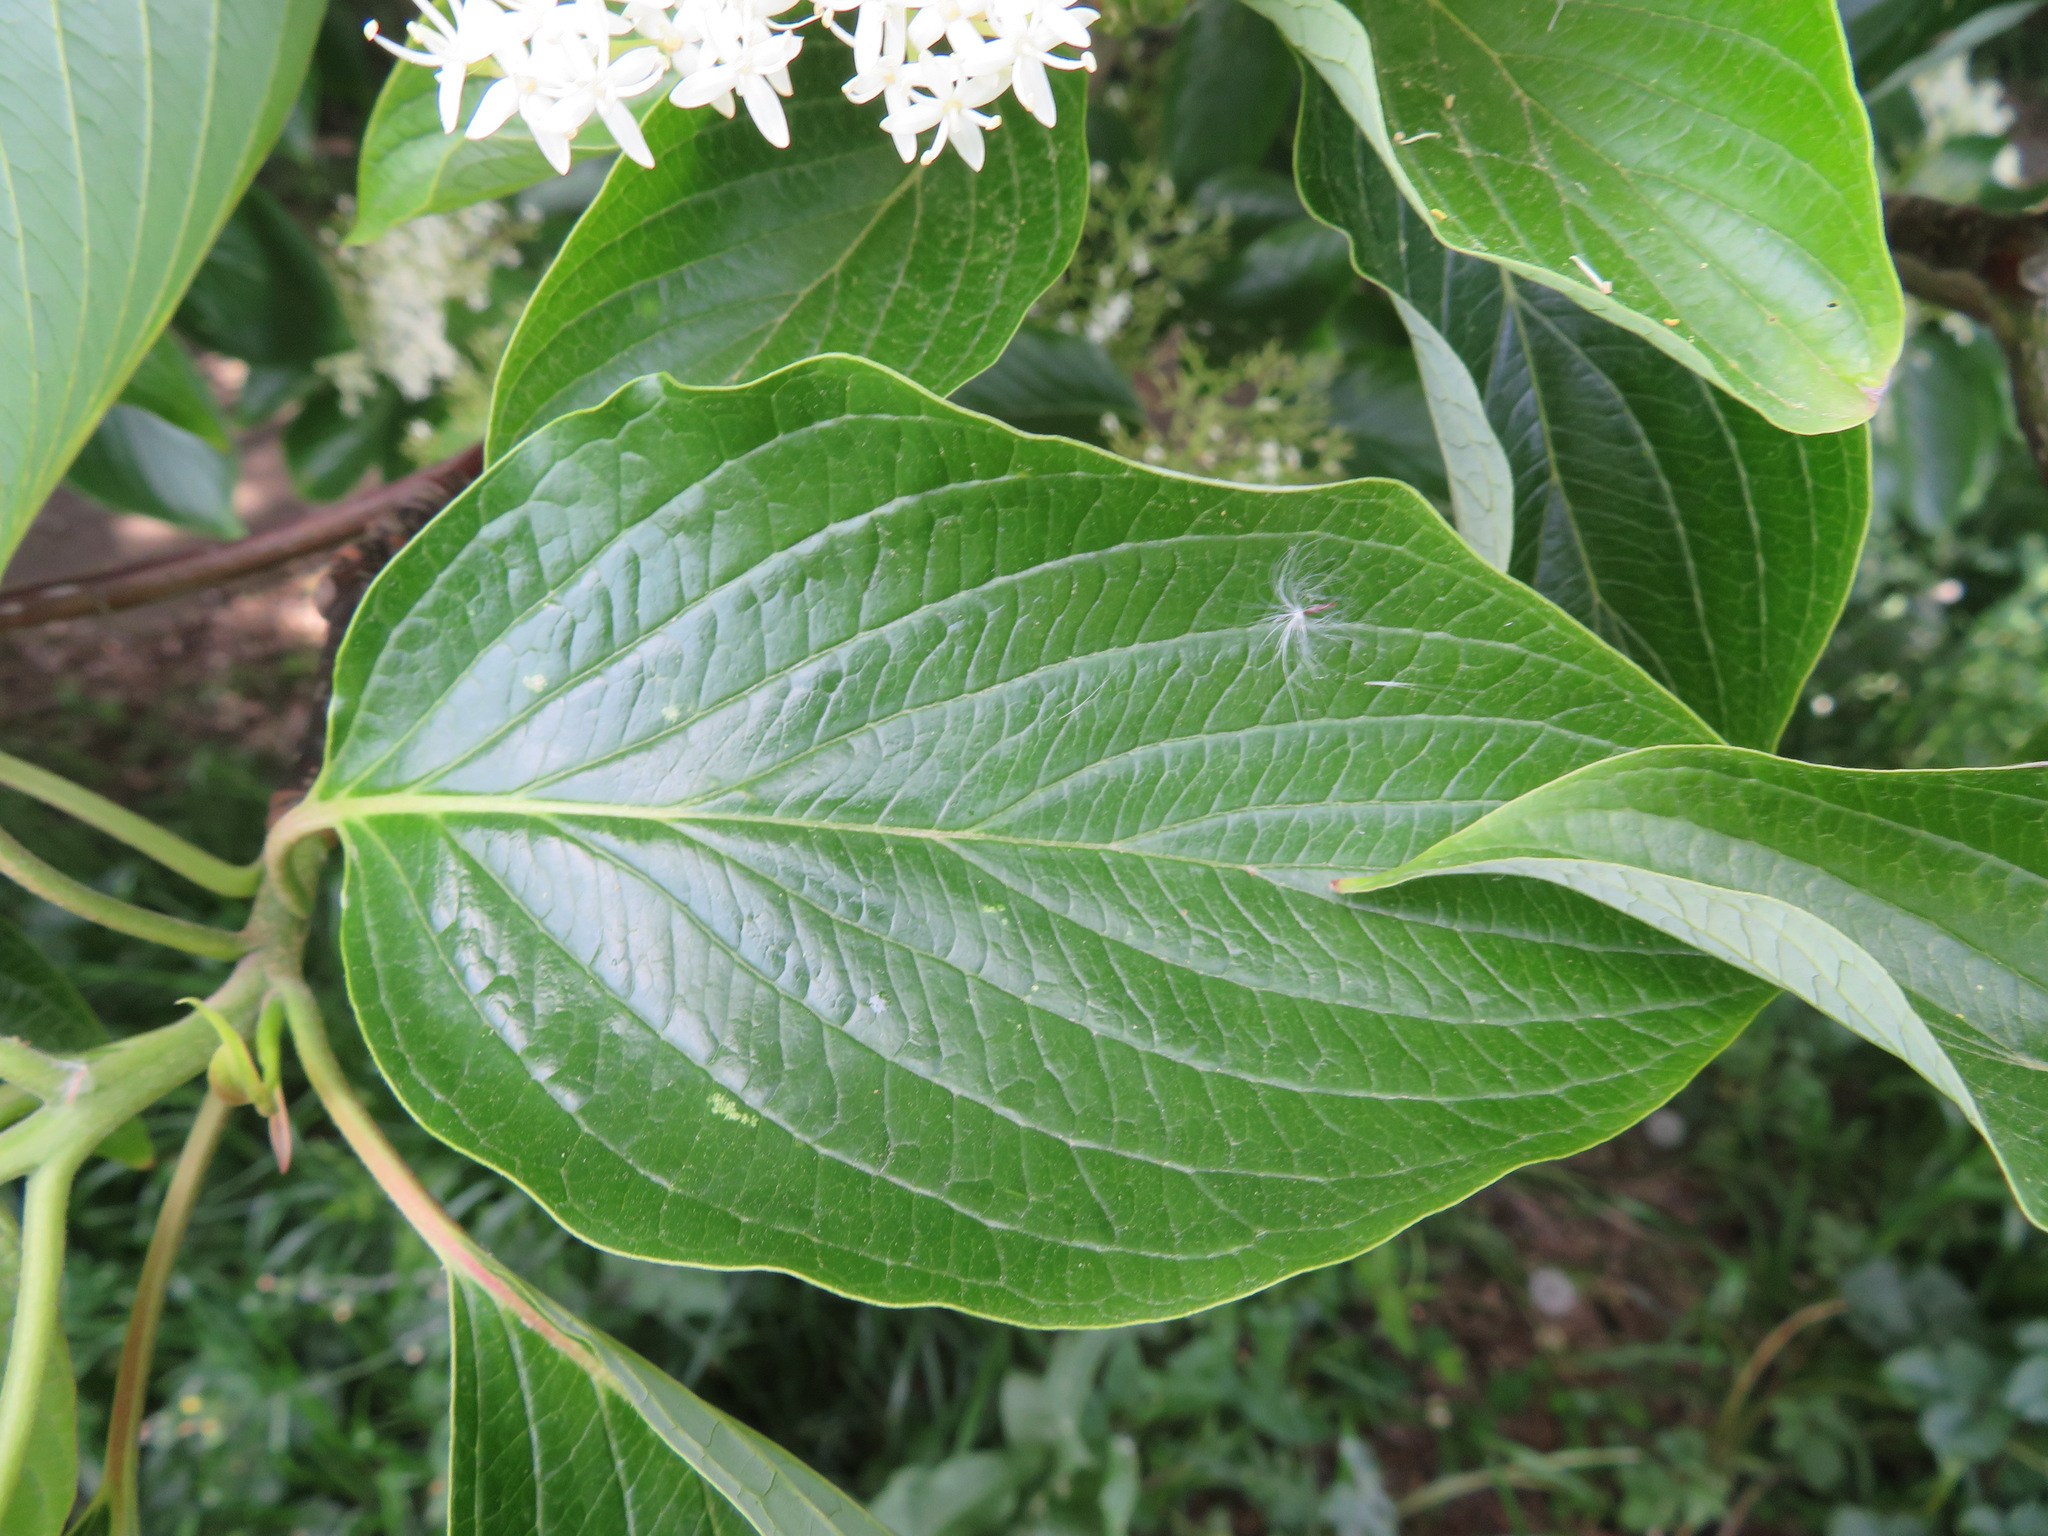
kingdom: Plantae
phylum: Tracheophyta
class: Magnoliopsida
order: Cornales
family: Cornaceae
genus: Cornus
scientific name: Cornus controversa
